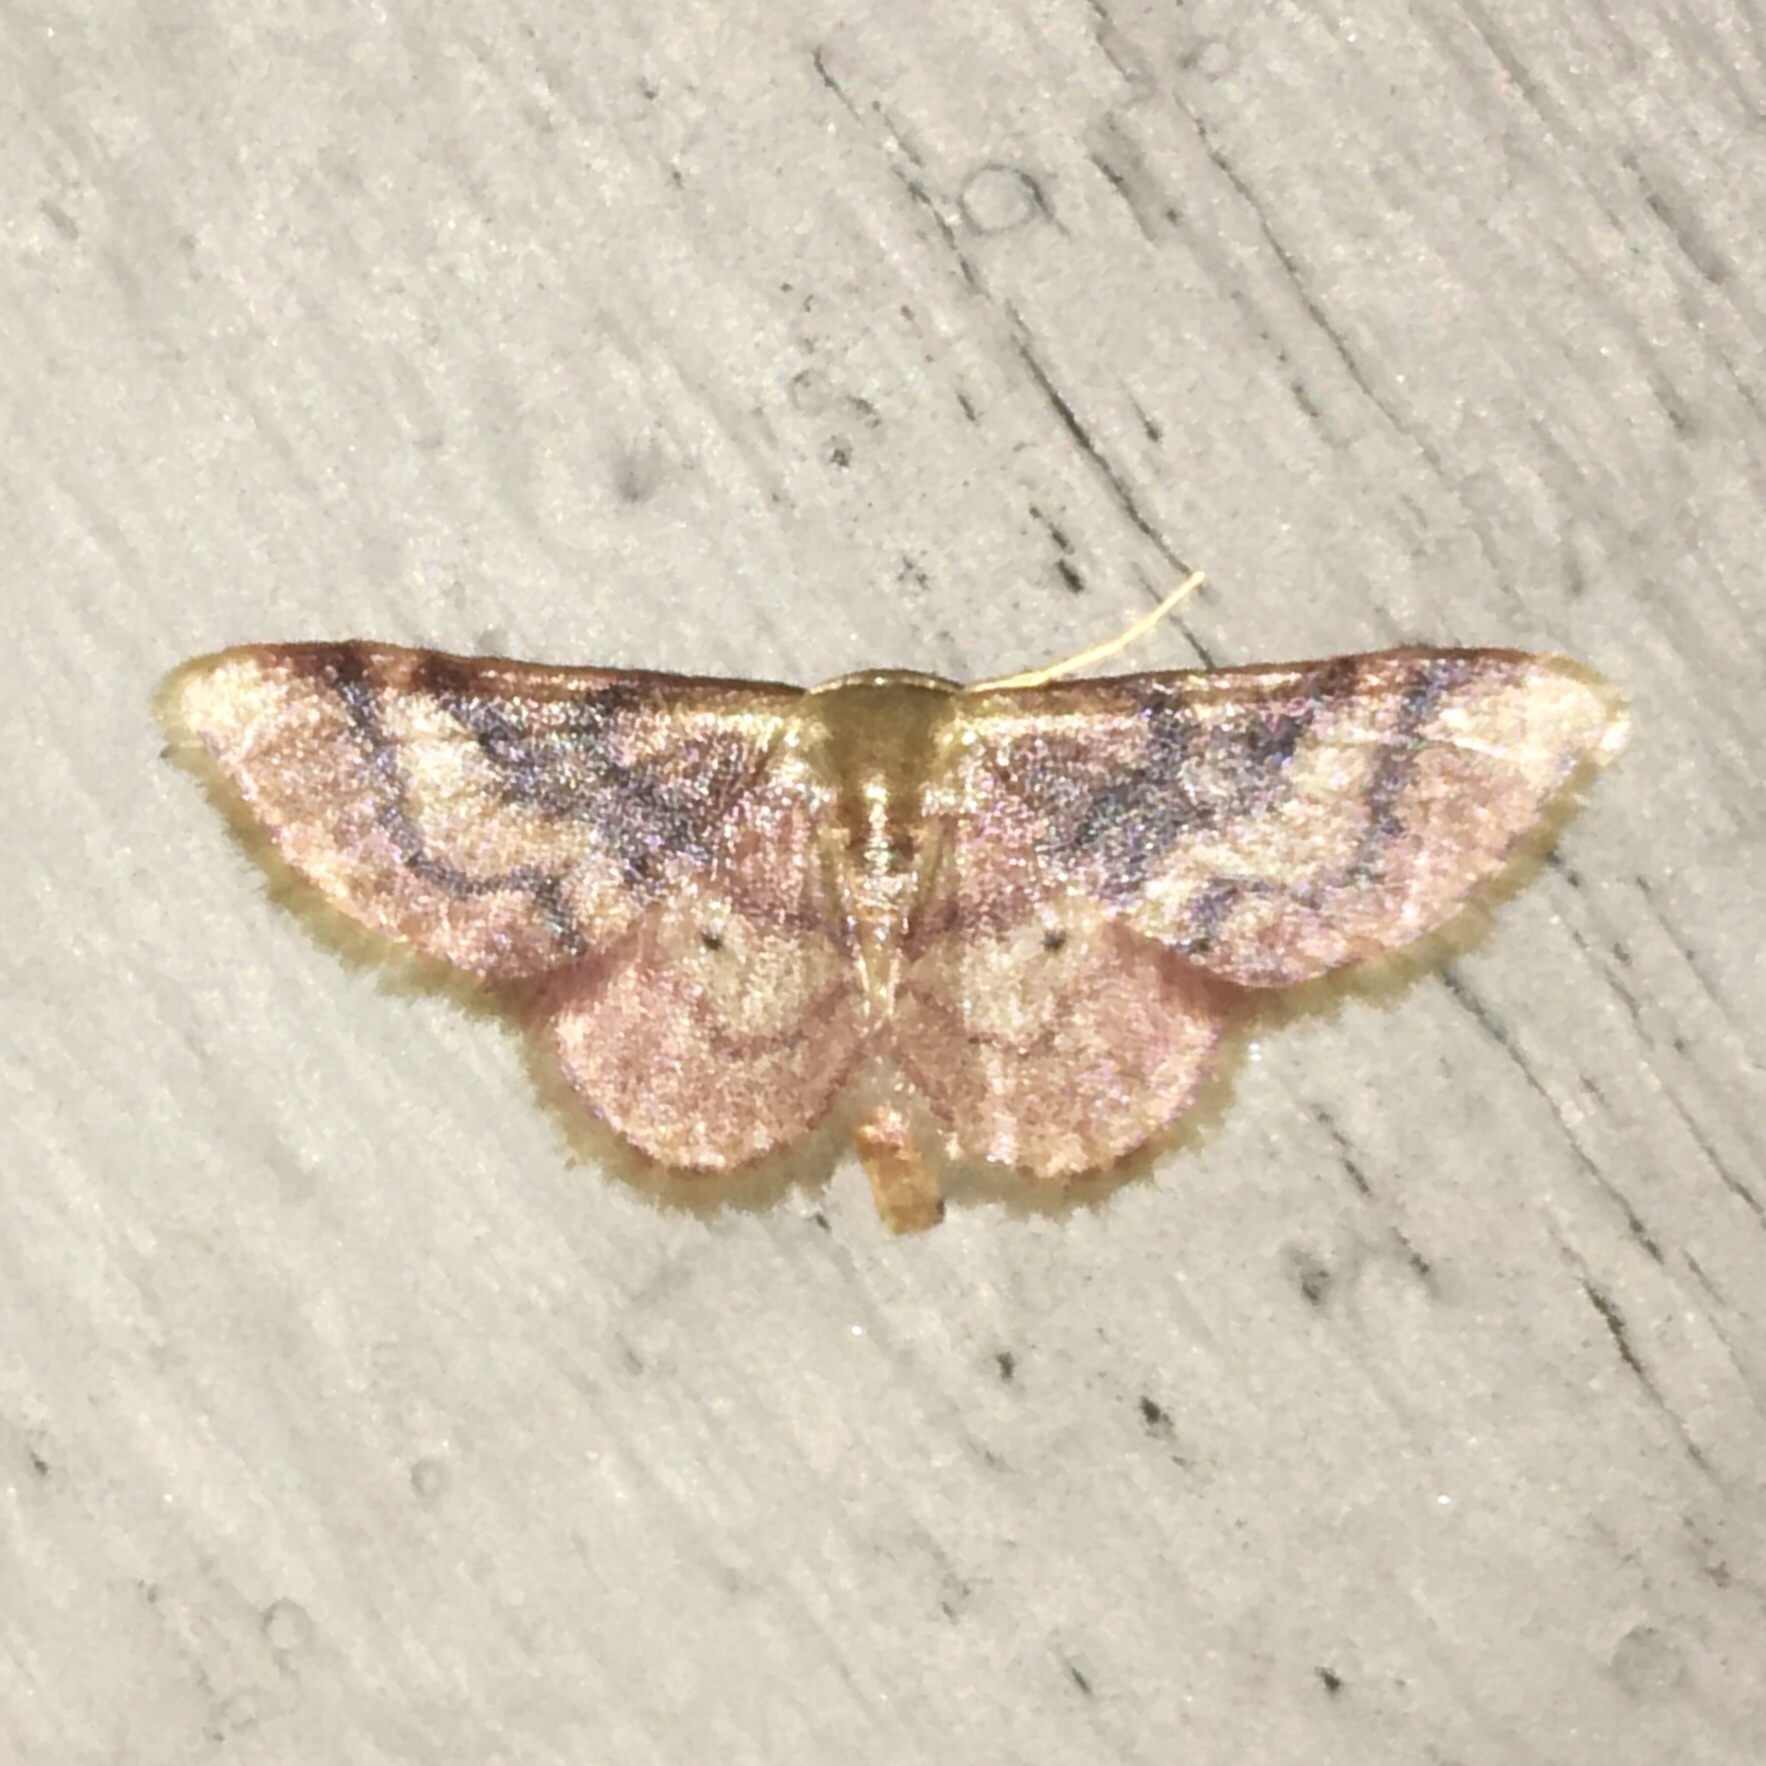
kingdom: Animalia
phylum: Arthropoda
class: Insecta
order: Lepidoptera
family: Geometridae
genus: Idaea
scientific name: Idaea demissaria
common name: Red-bordered wave
